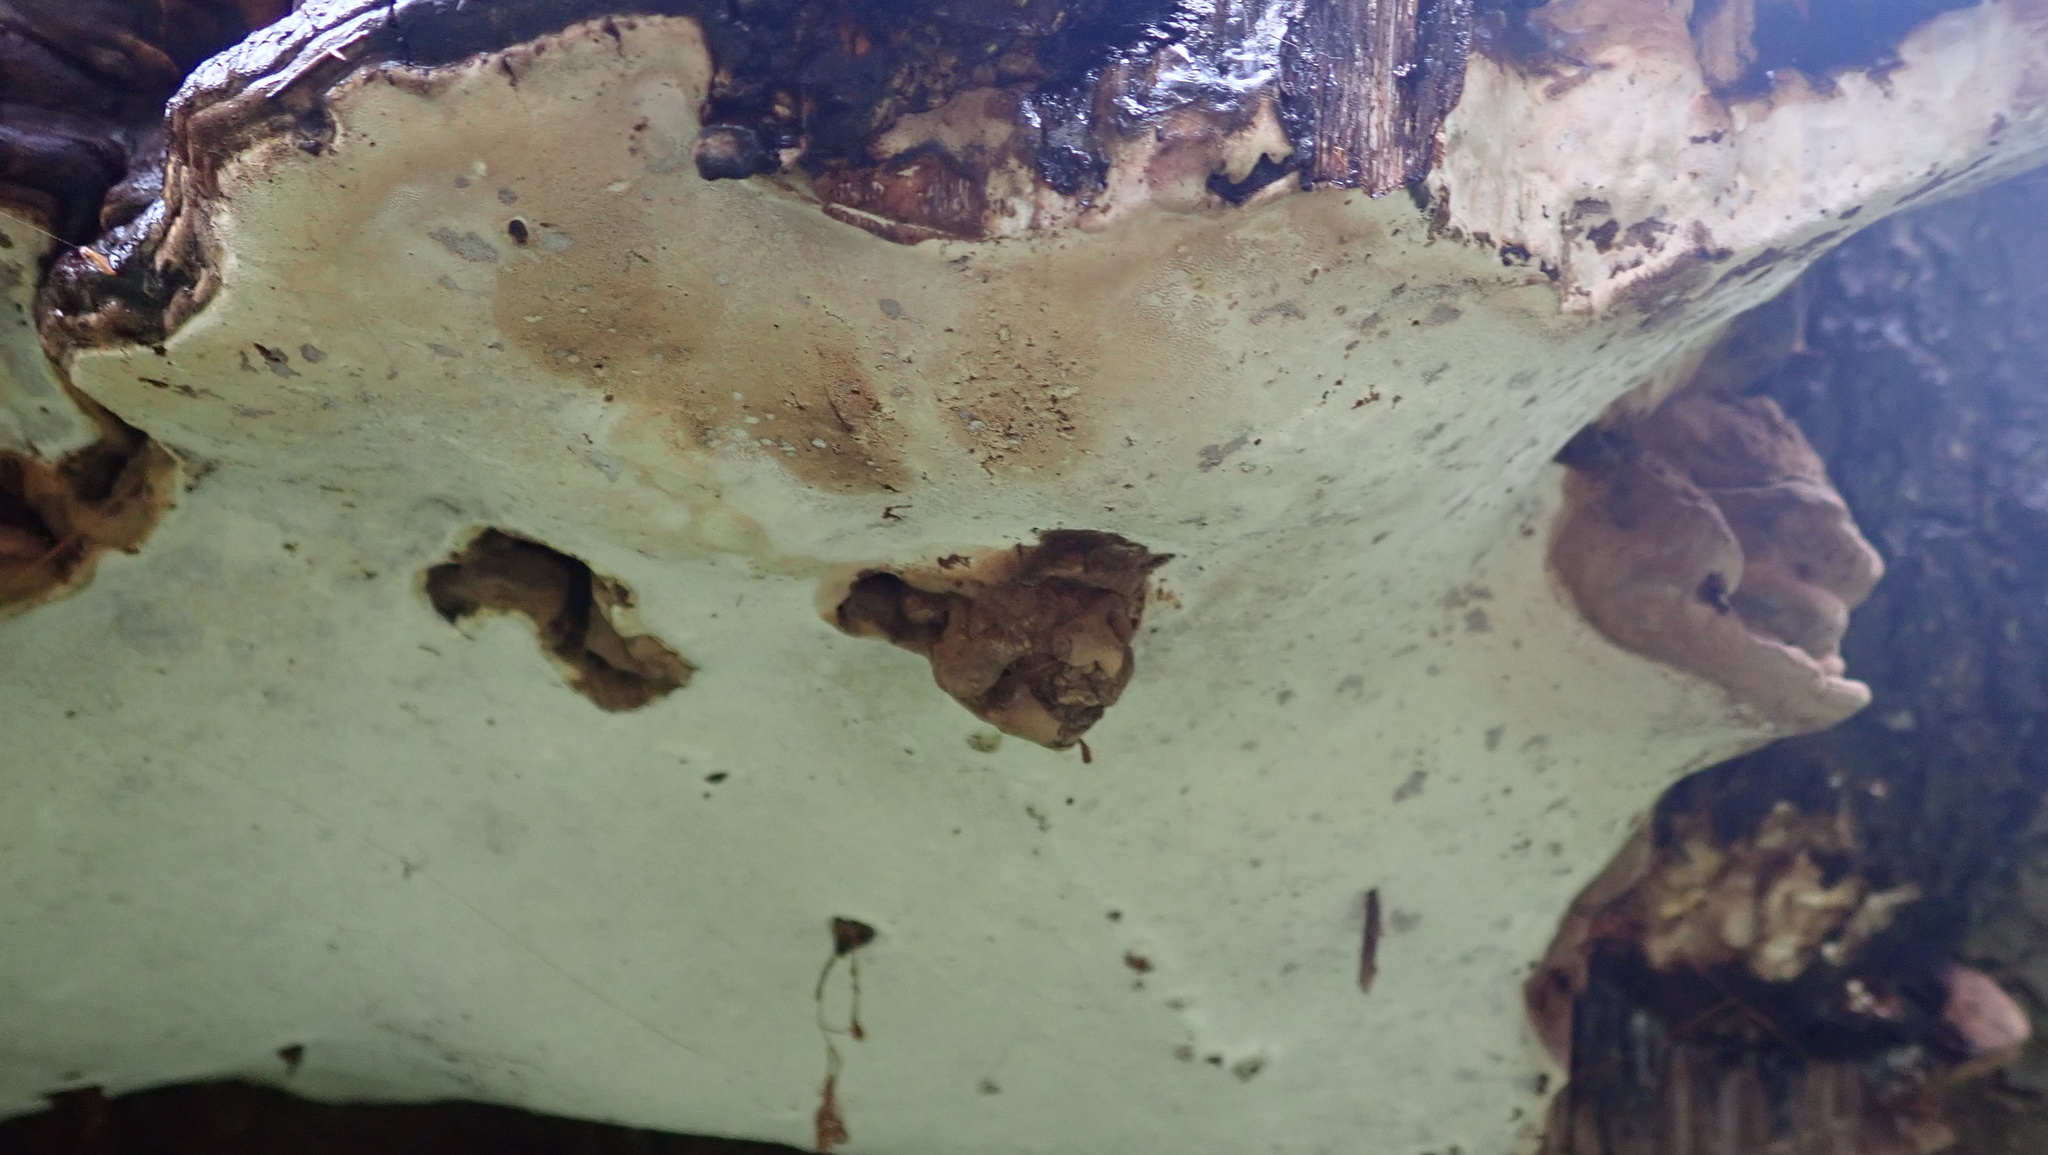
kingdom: Fungi
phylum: Basidiomycota
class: Agaricomycetes
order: Polyporales
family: Polyporaceae
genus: Ganoderma
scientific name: Ganoderma applanatum
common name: Artist's bracket
